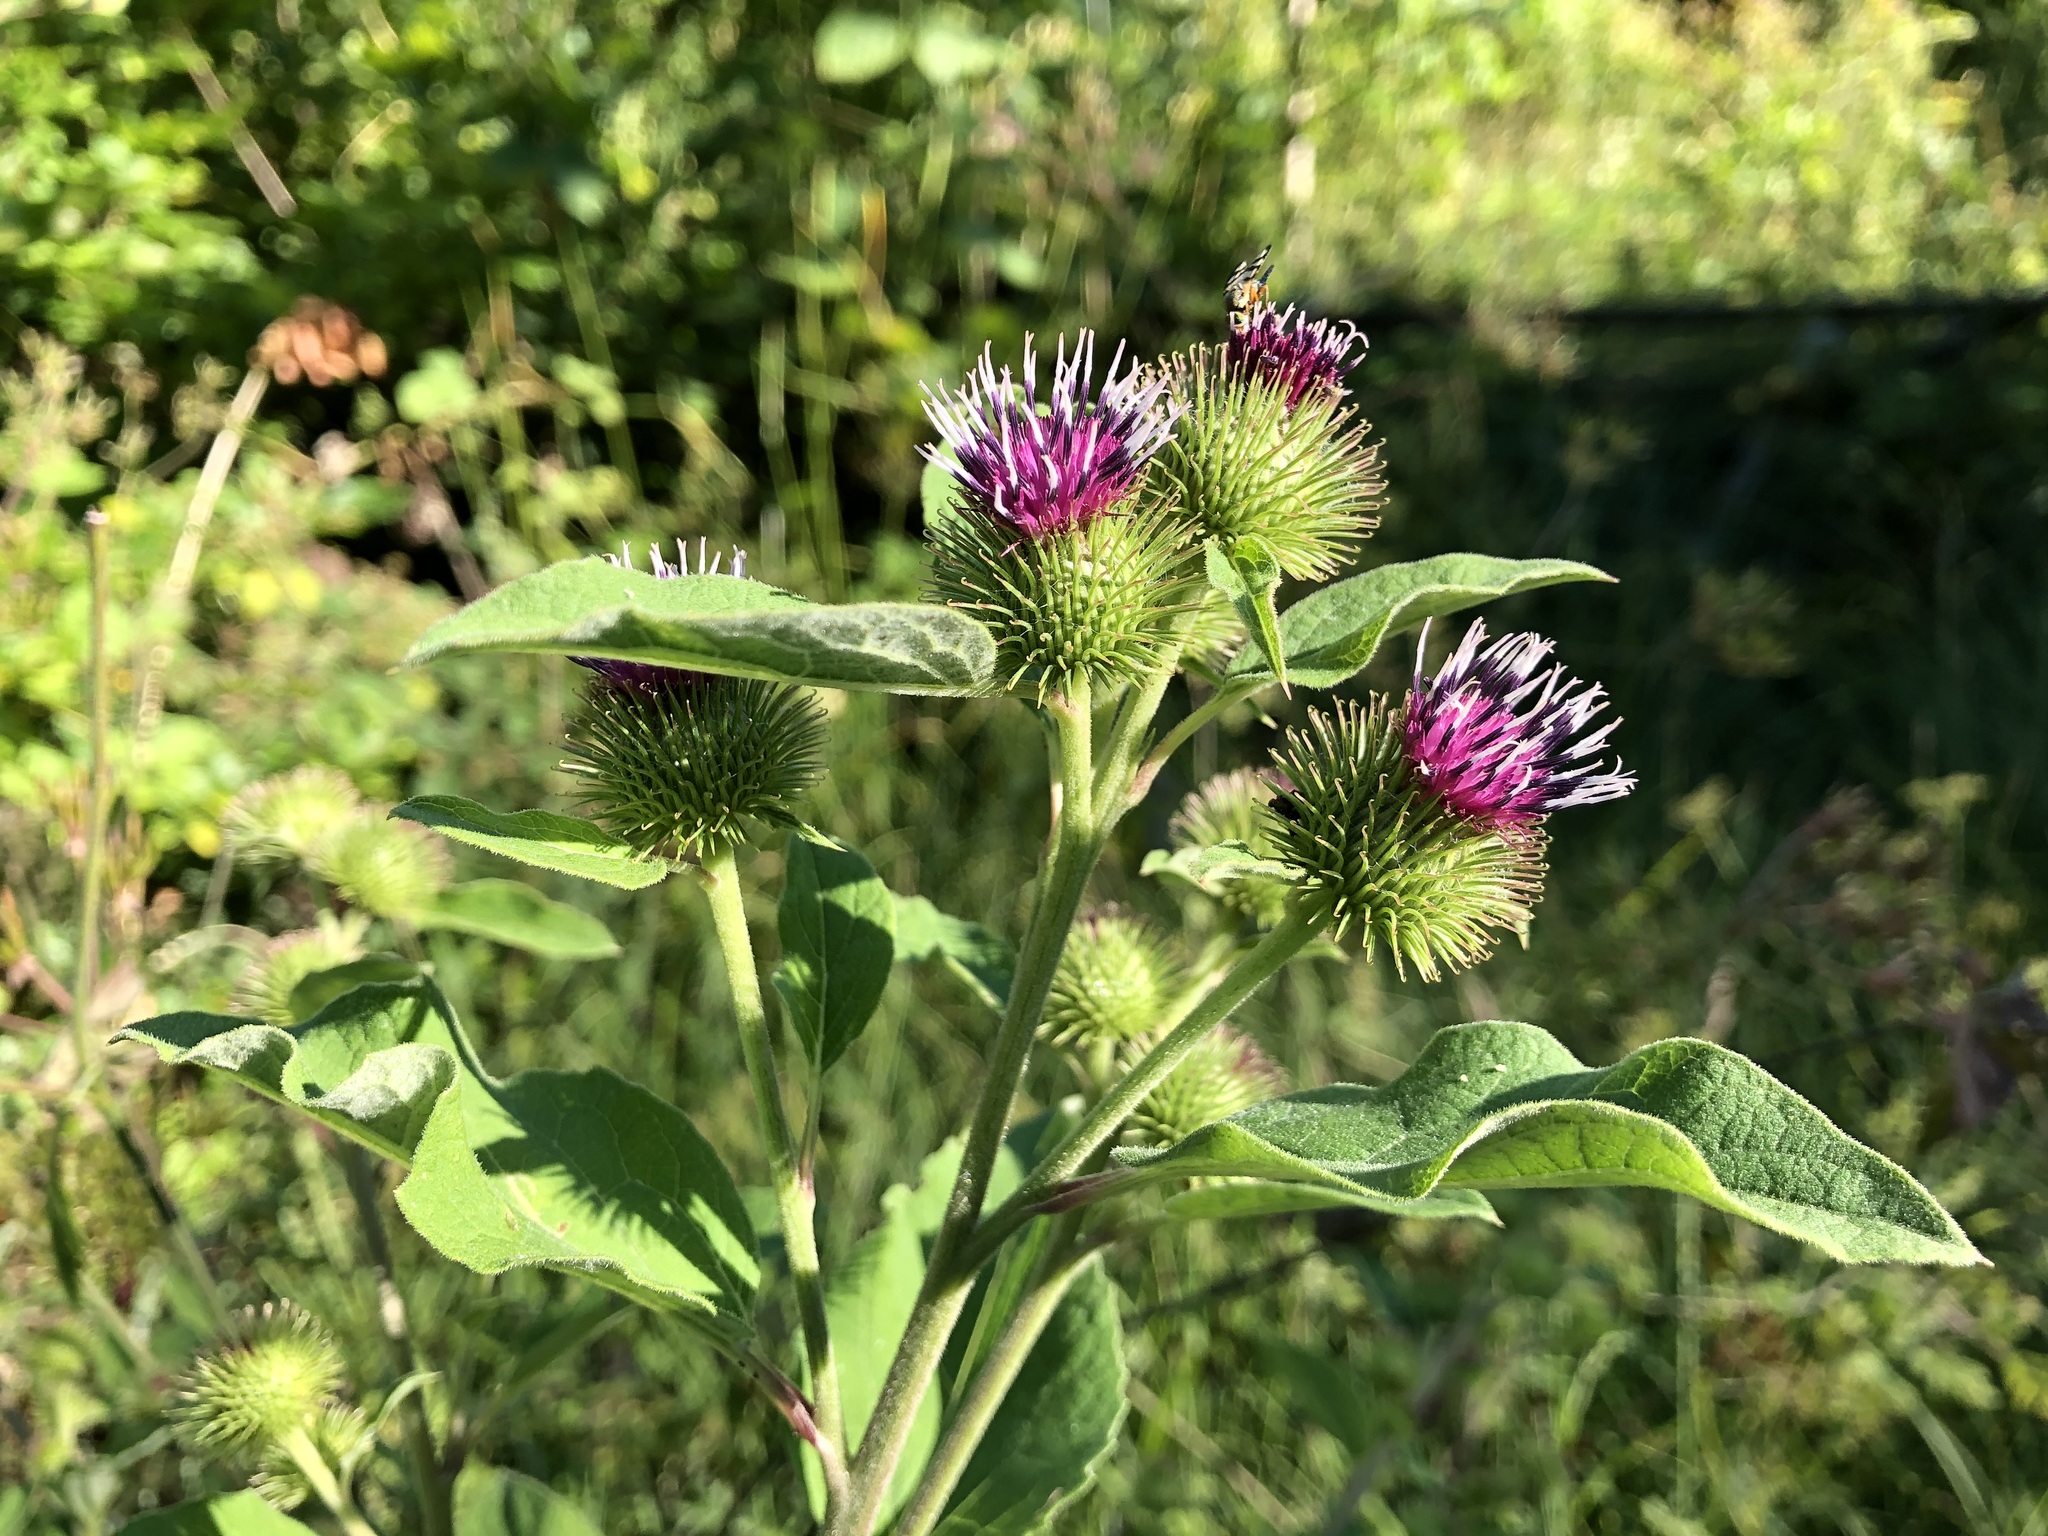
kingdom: Plantae
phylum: Tracheophyta
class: Magnoliopsida
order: Asterales
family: Asteraceae
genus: Arctium
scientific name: Arctium lappa
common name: Greater burdock
